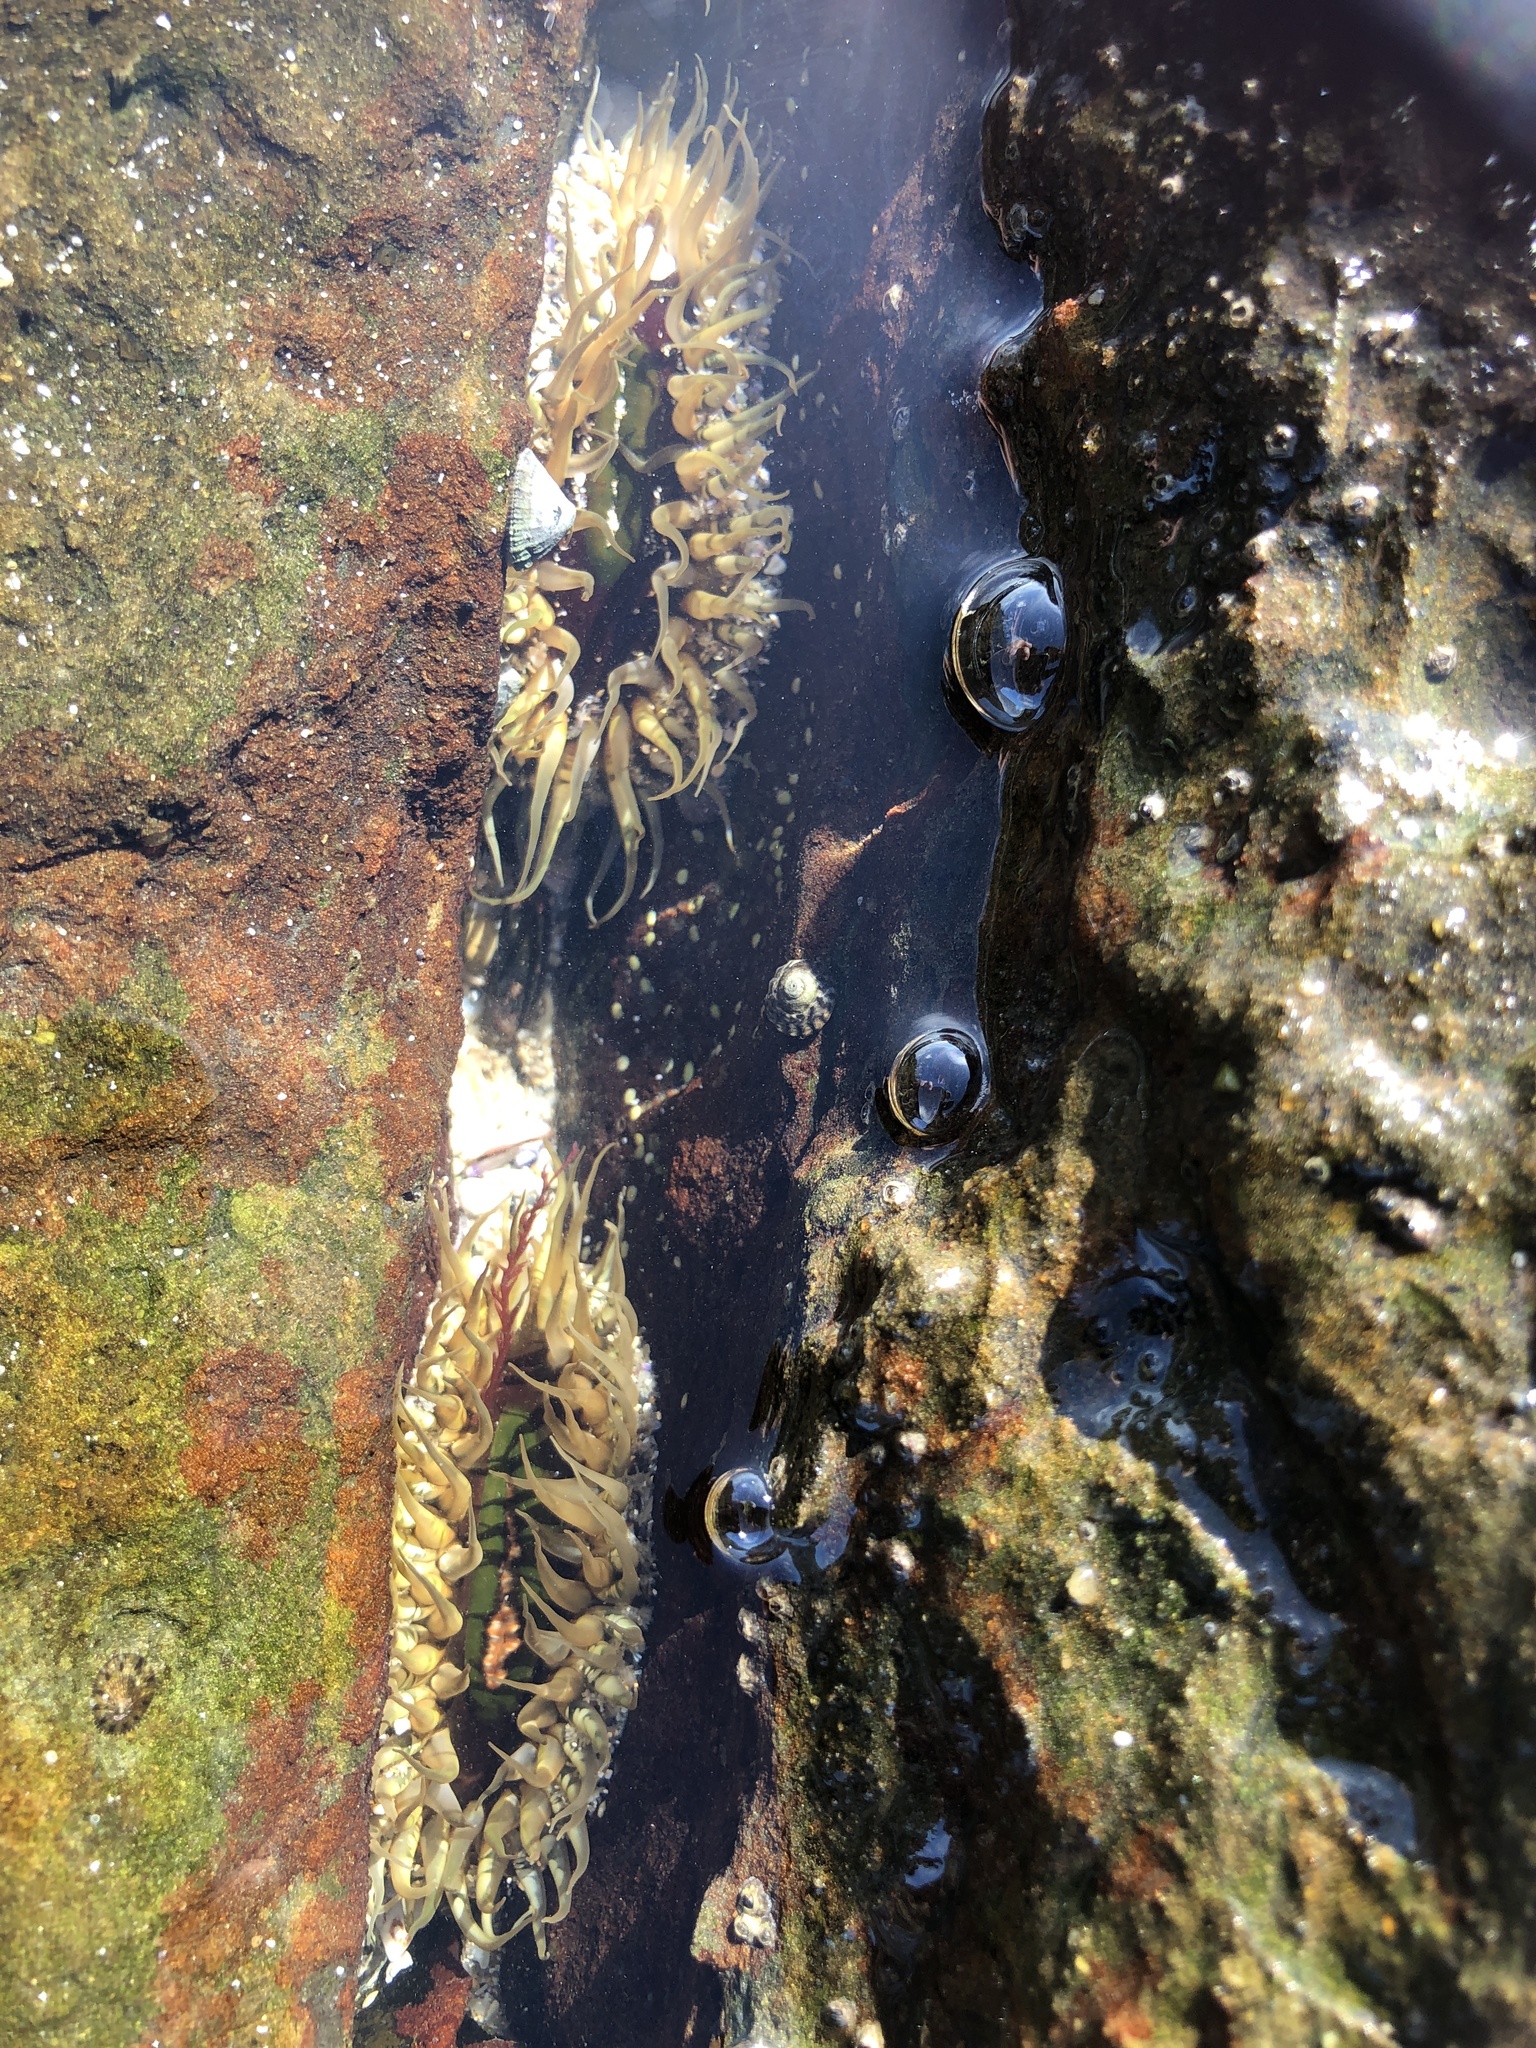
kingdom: Animalia
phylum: Cnidaria
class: Anthozoa
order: Actiniaria
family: Actiniidae
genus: Oulactis
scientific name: Oulactis muscosa
